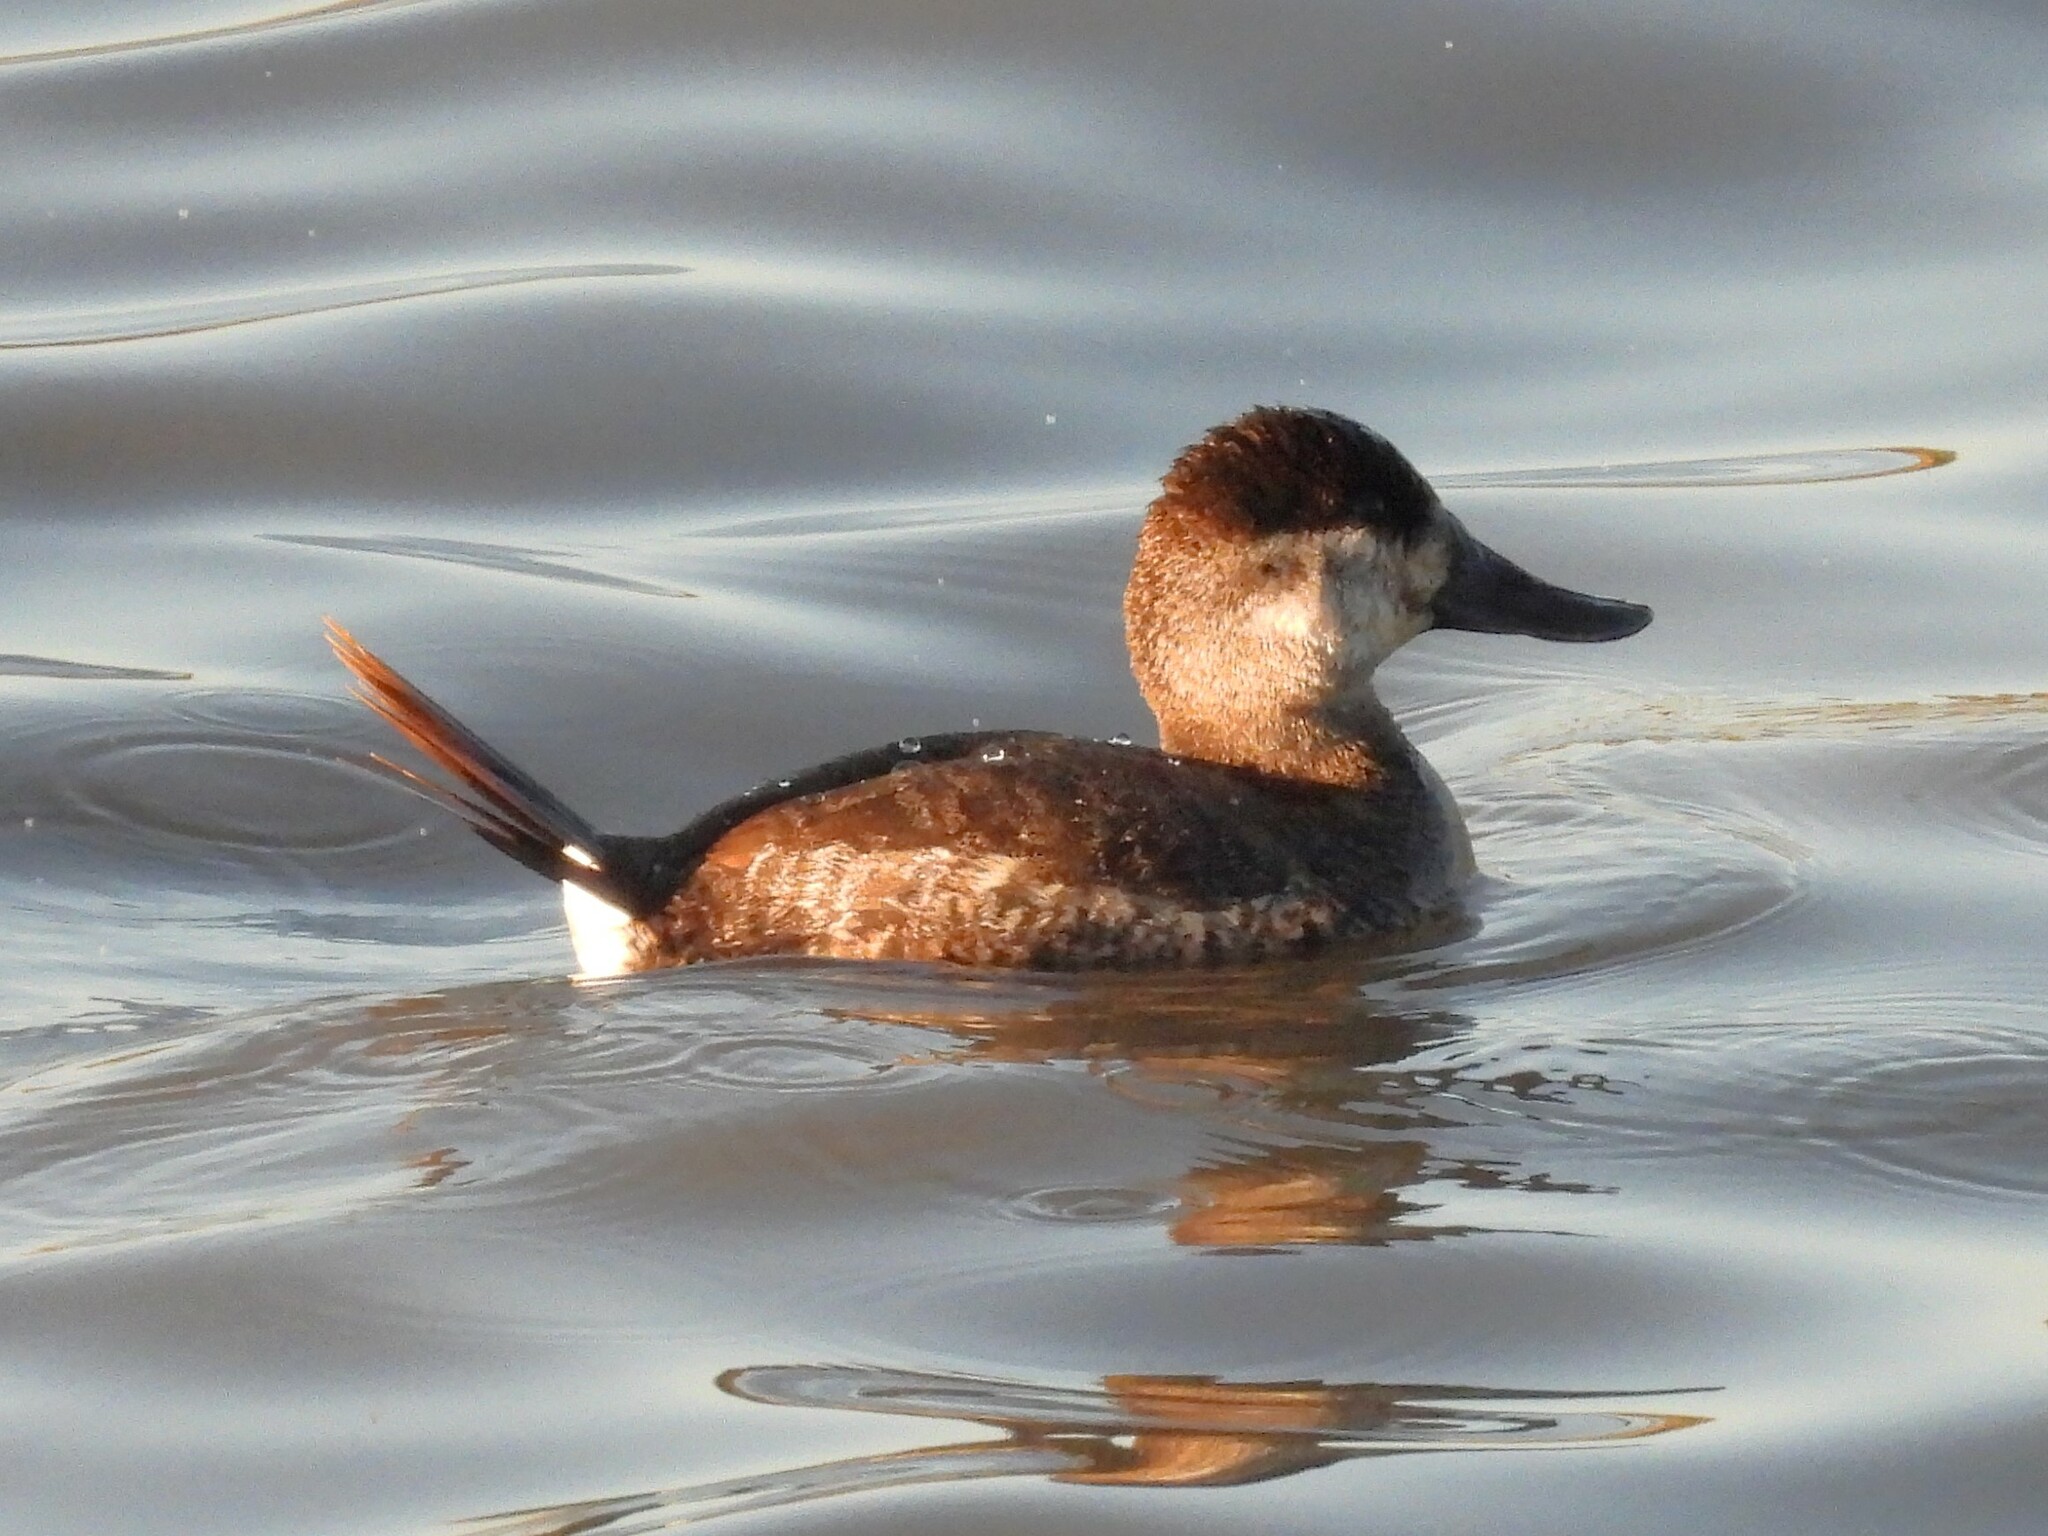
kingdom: Animalia
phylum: Chordata
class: Aves
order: Anseriformes
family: Anatidae
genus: Oxyura
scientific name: Oxyura jamaicensis
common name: Ruddy duck
